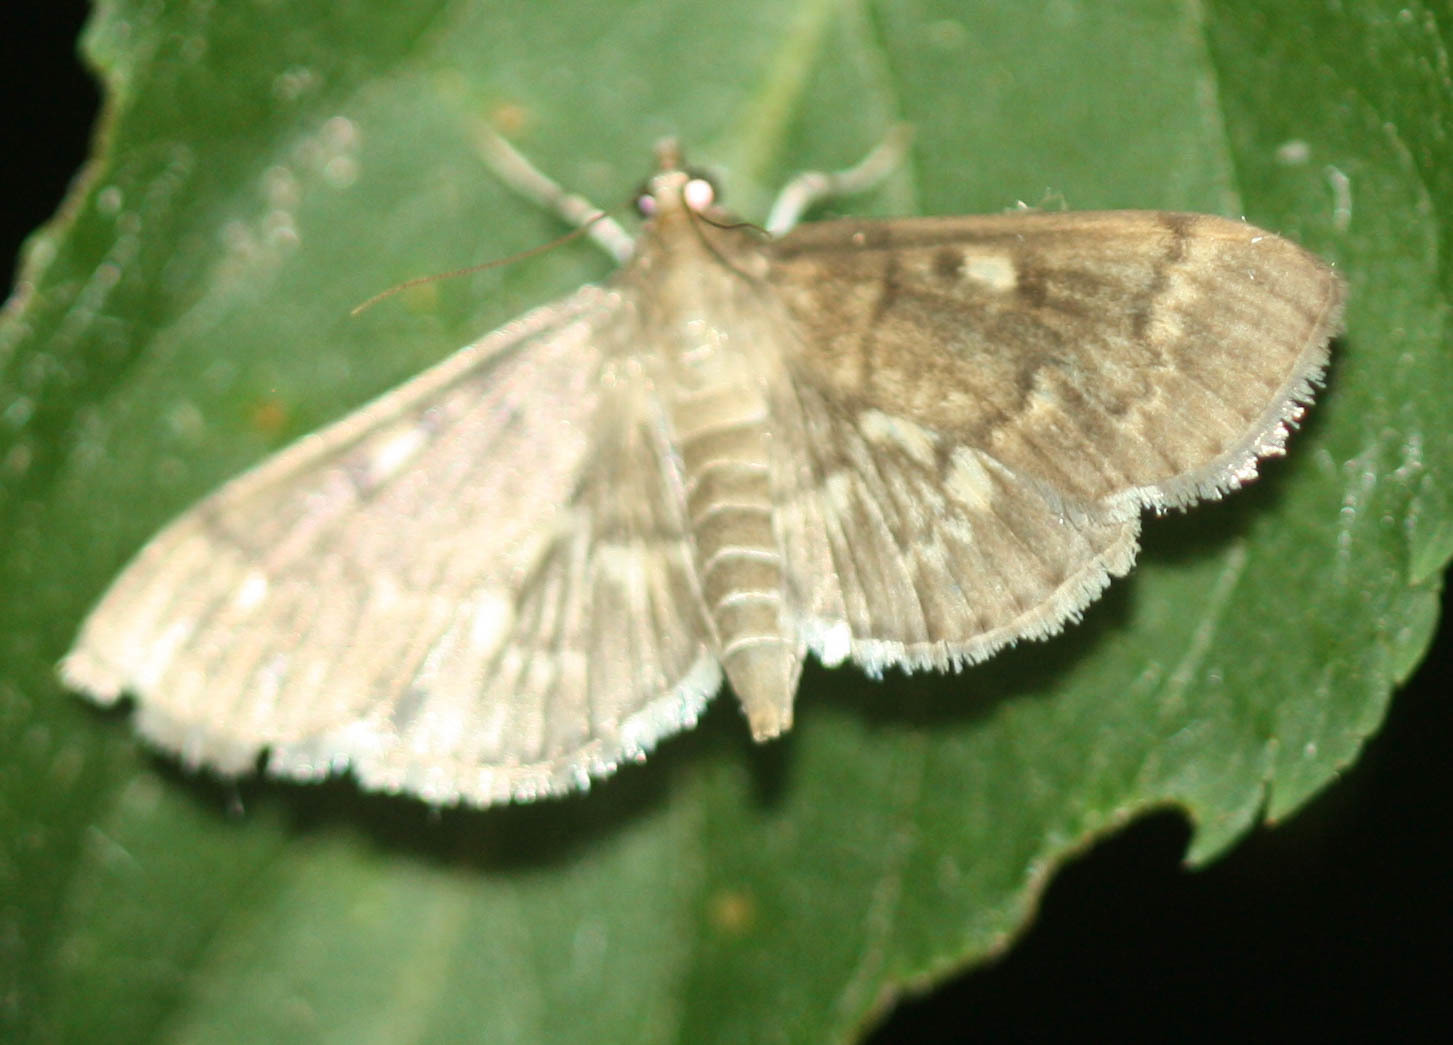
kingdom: Animalia
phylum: Arthropoda
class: Insecta
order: Lepidoptera
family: Crambidae
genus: Herpetogramma
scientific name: Herpetogramma aeglealis
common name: Serpentine webworm moth
